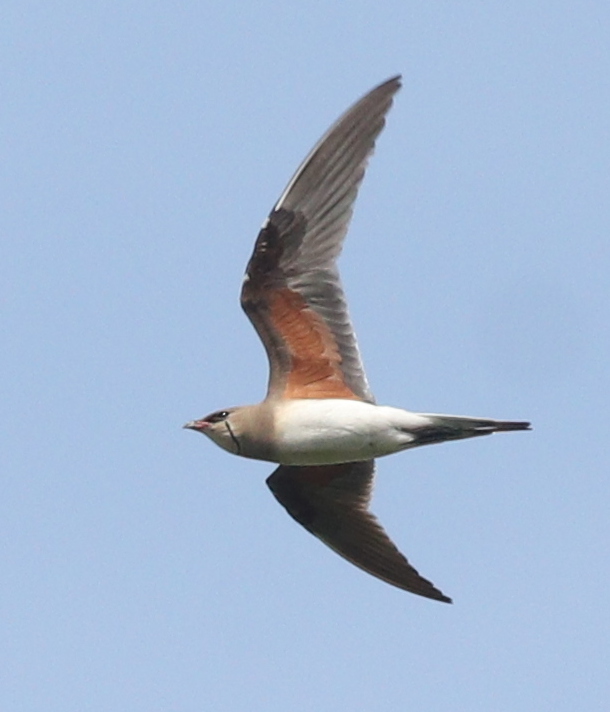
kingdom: Animalia
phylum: Chordata
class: Aves
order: Charadriiformes
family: Glareolidae
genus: Glareola
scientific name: Glareola pratincola
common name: Collared pratincole
